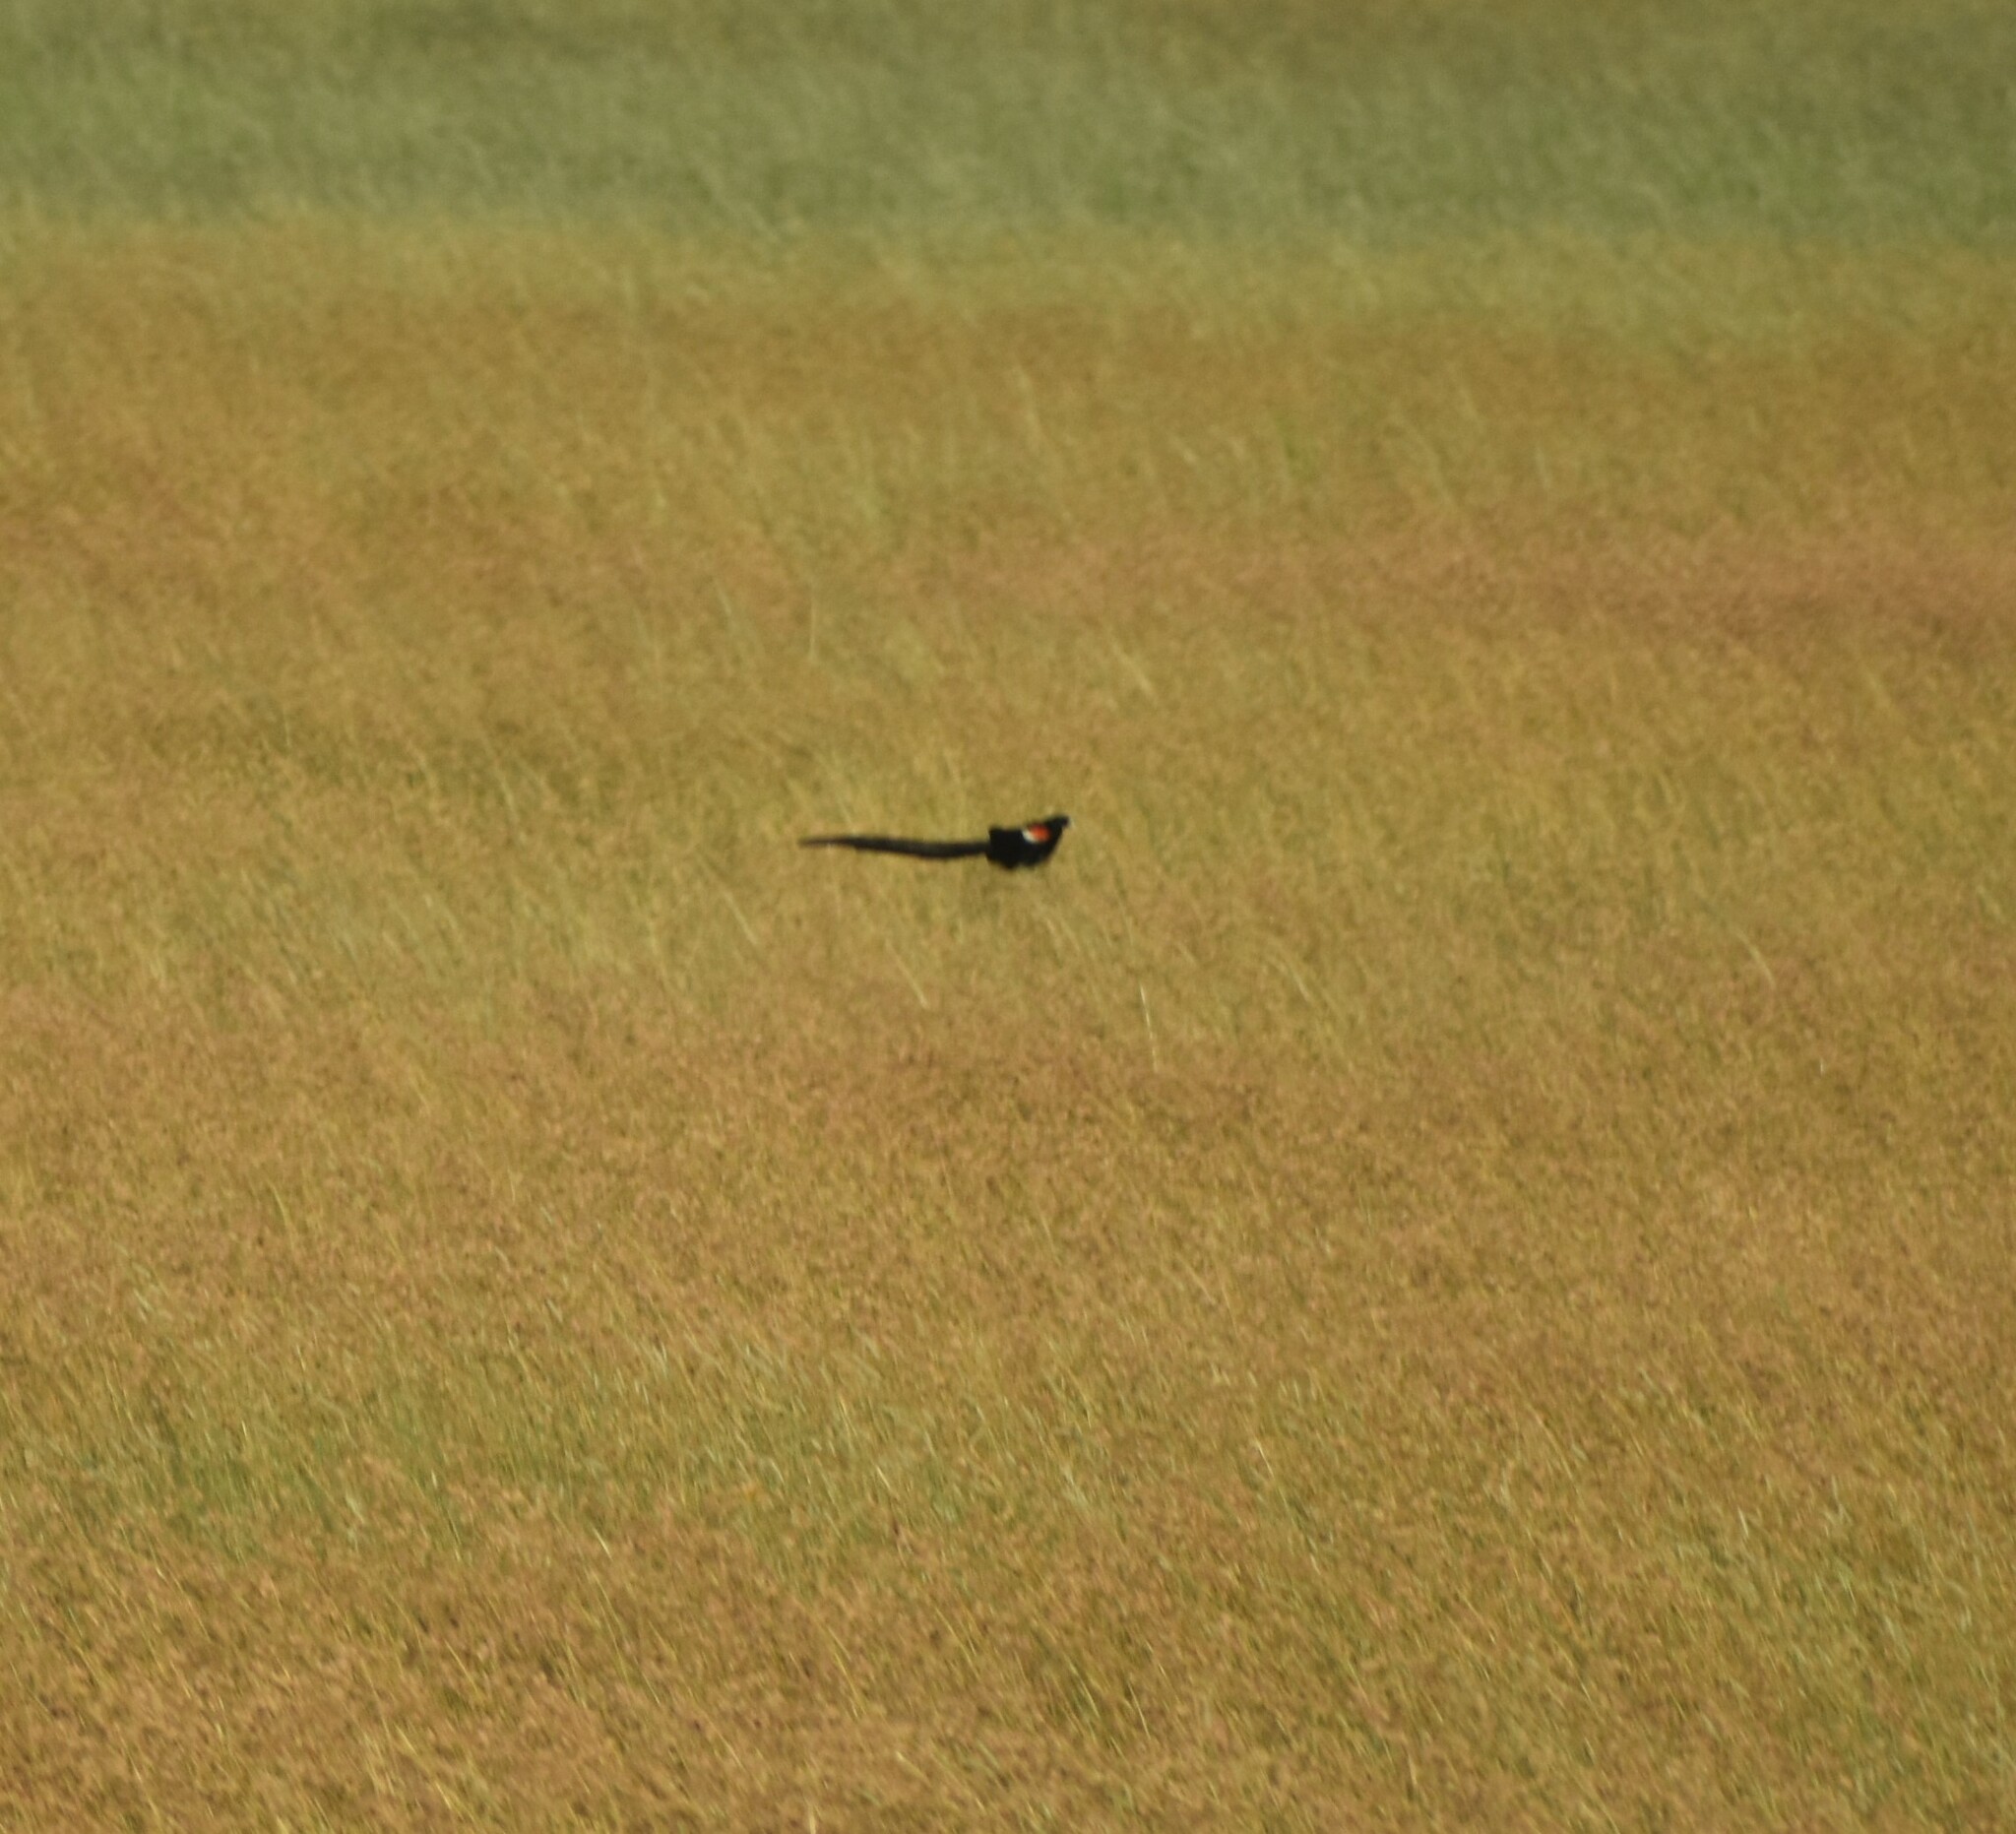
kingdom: Animalia
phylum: Chordata
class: Aves
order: Passeriformes
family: Ploceidae
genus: Euplectes
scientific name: Euplectes progne
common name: Long-tailed widowbird
